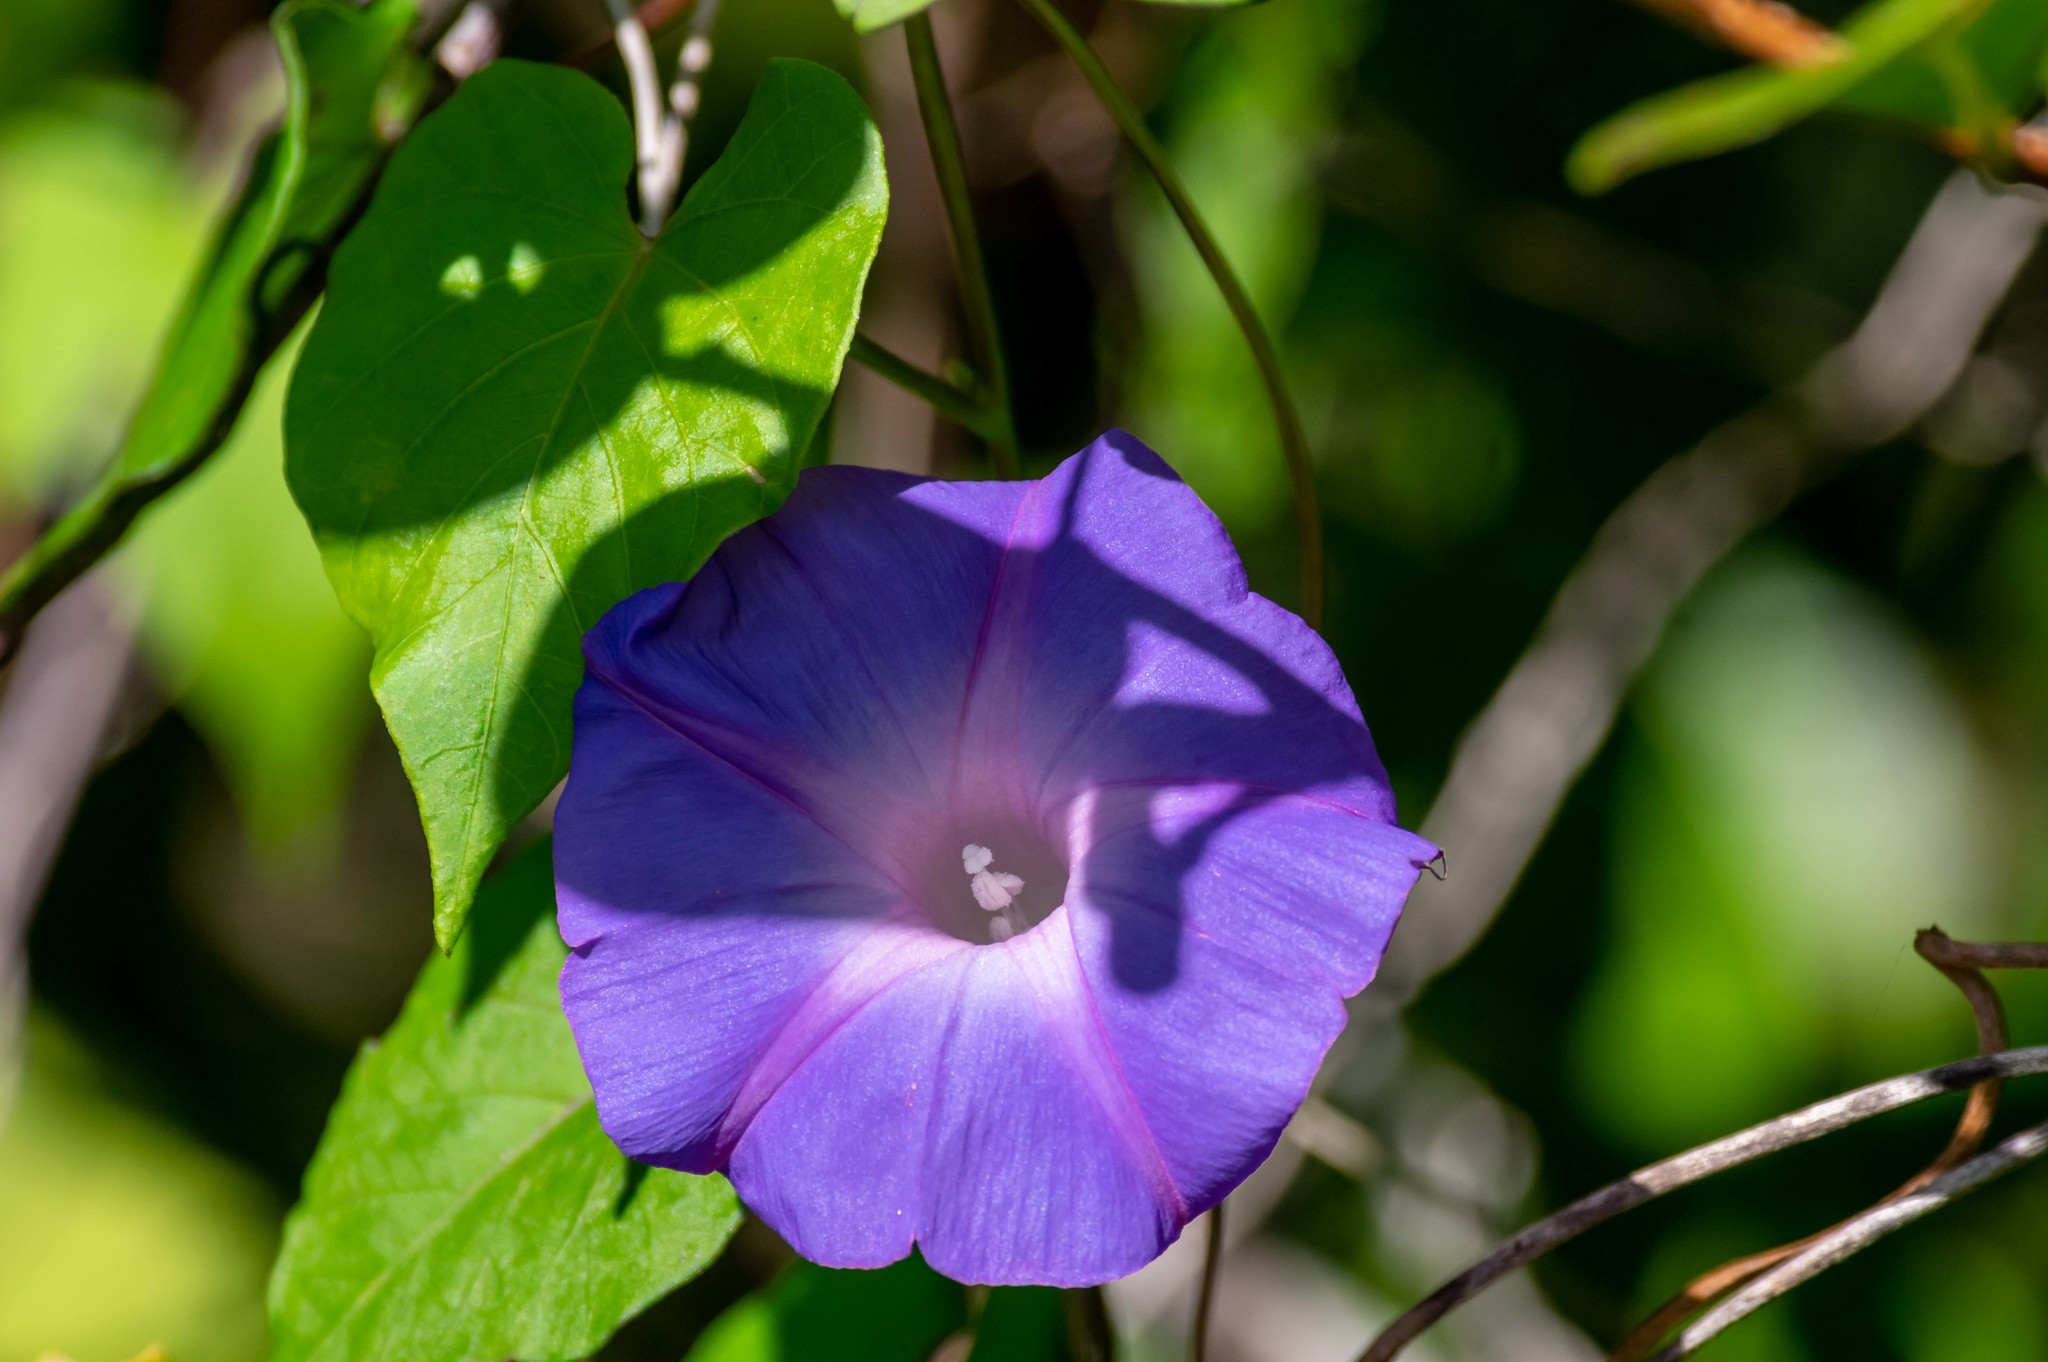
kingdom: Plantae
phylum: Tracheophyta
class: Magnoliopsida
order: Solanales
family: Convolvulaceae
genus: Ipomoea
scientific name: Ipomoea indica
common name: Blue dawnflower
